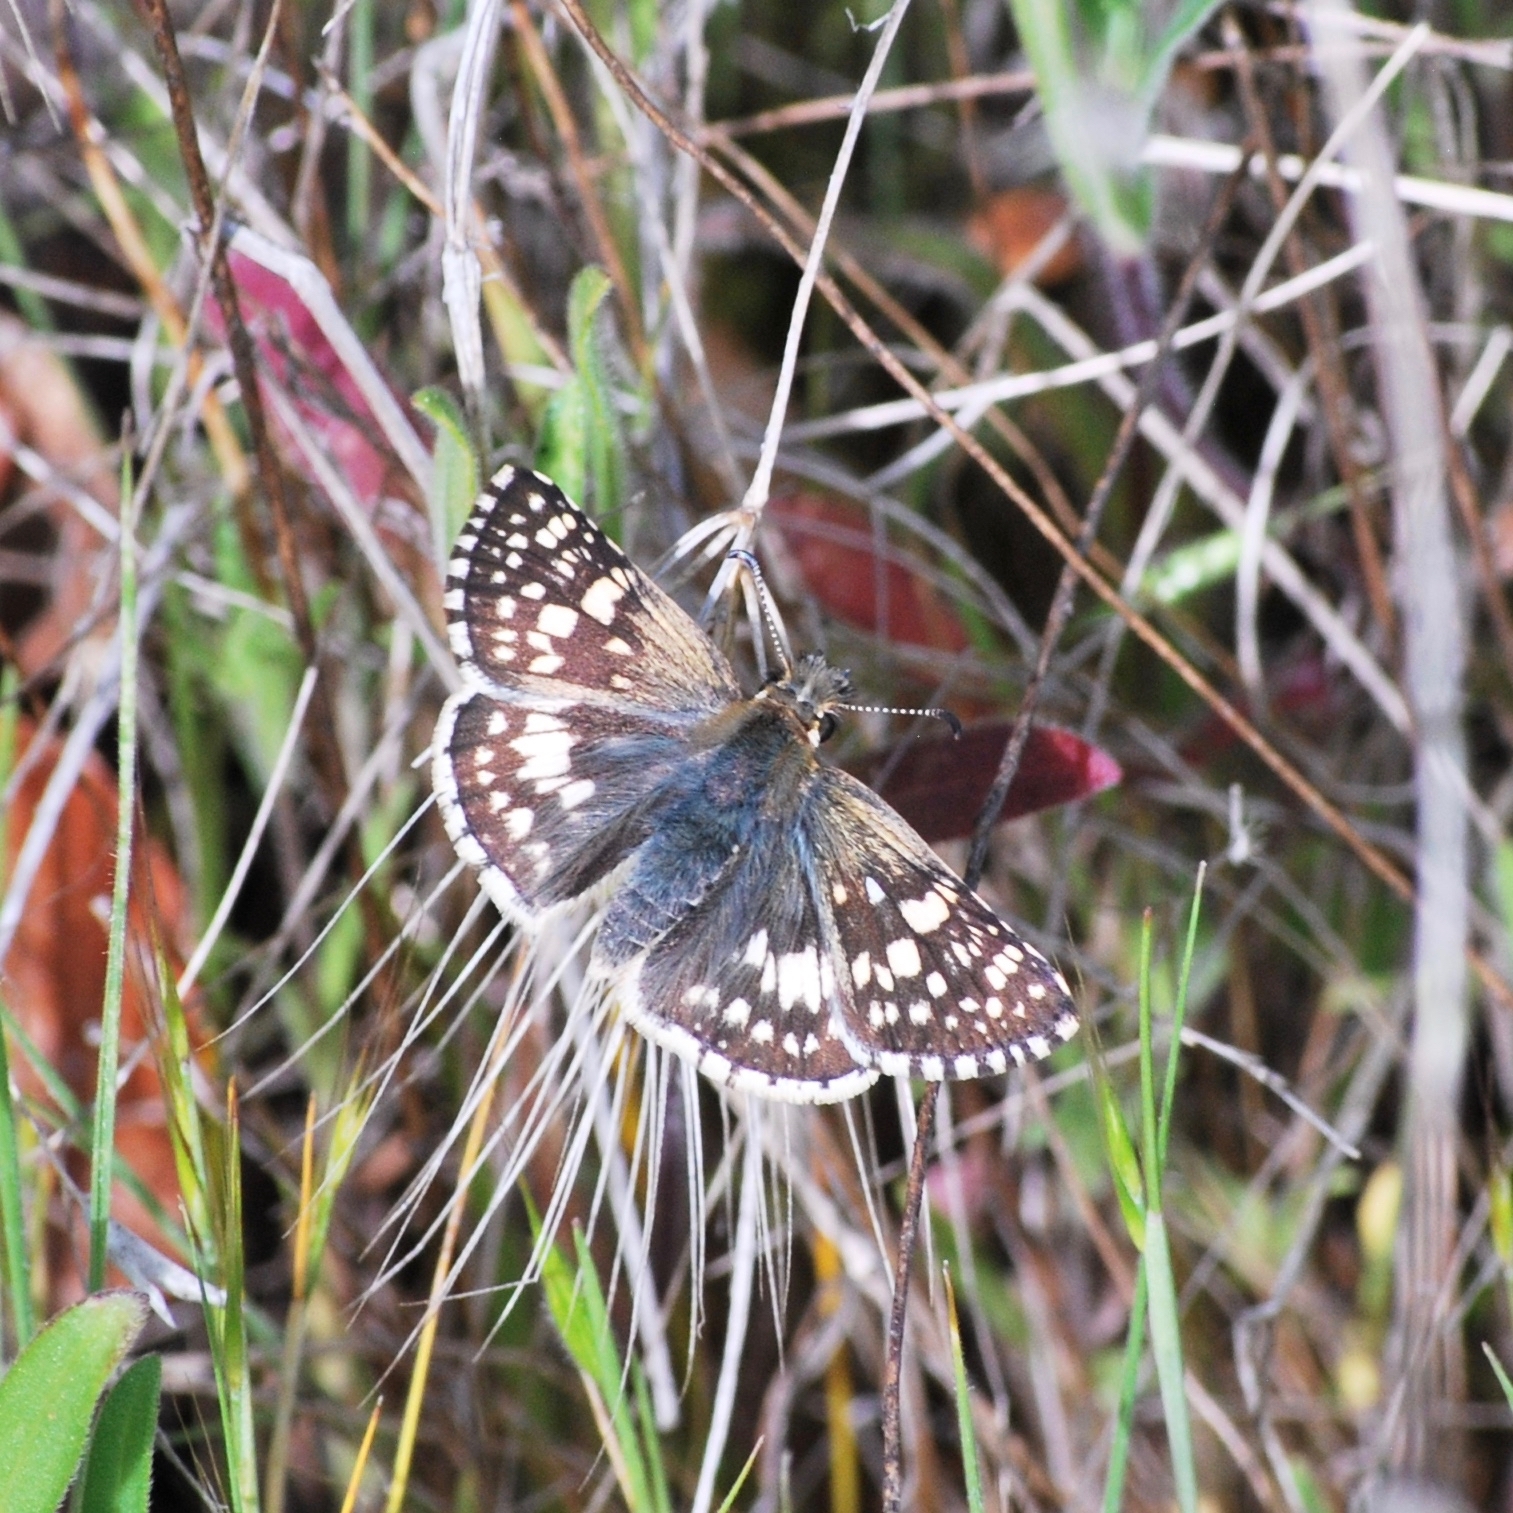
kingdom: Animalia
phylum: Arthropoda
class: Insecta
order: Lepidoptera
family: Hesperiidae
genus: Burnsius
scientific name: Burnsius communis
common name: Common checkered-skipper
